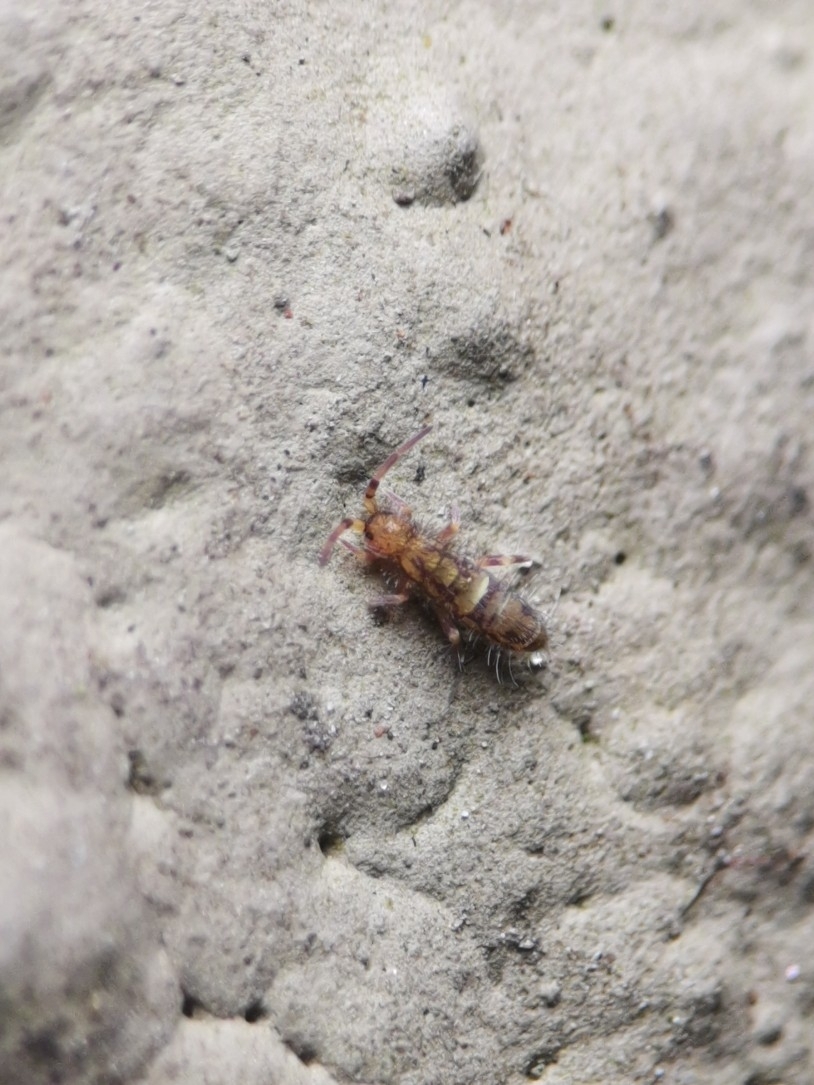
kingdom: Animalia
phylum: Arthropoda
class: Collembola
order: Entomobryomorpha
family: Orchesellidae
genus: Orchesella
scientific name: Orchesella cincta
